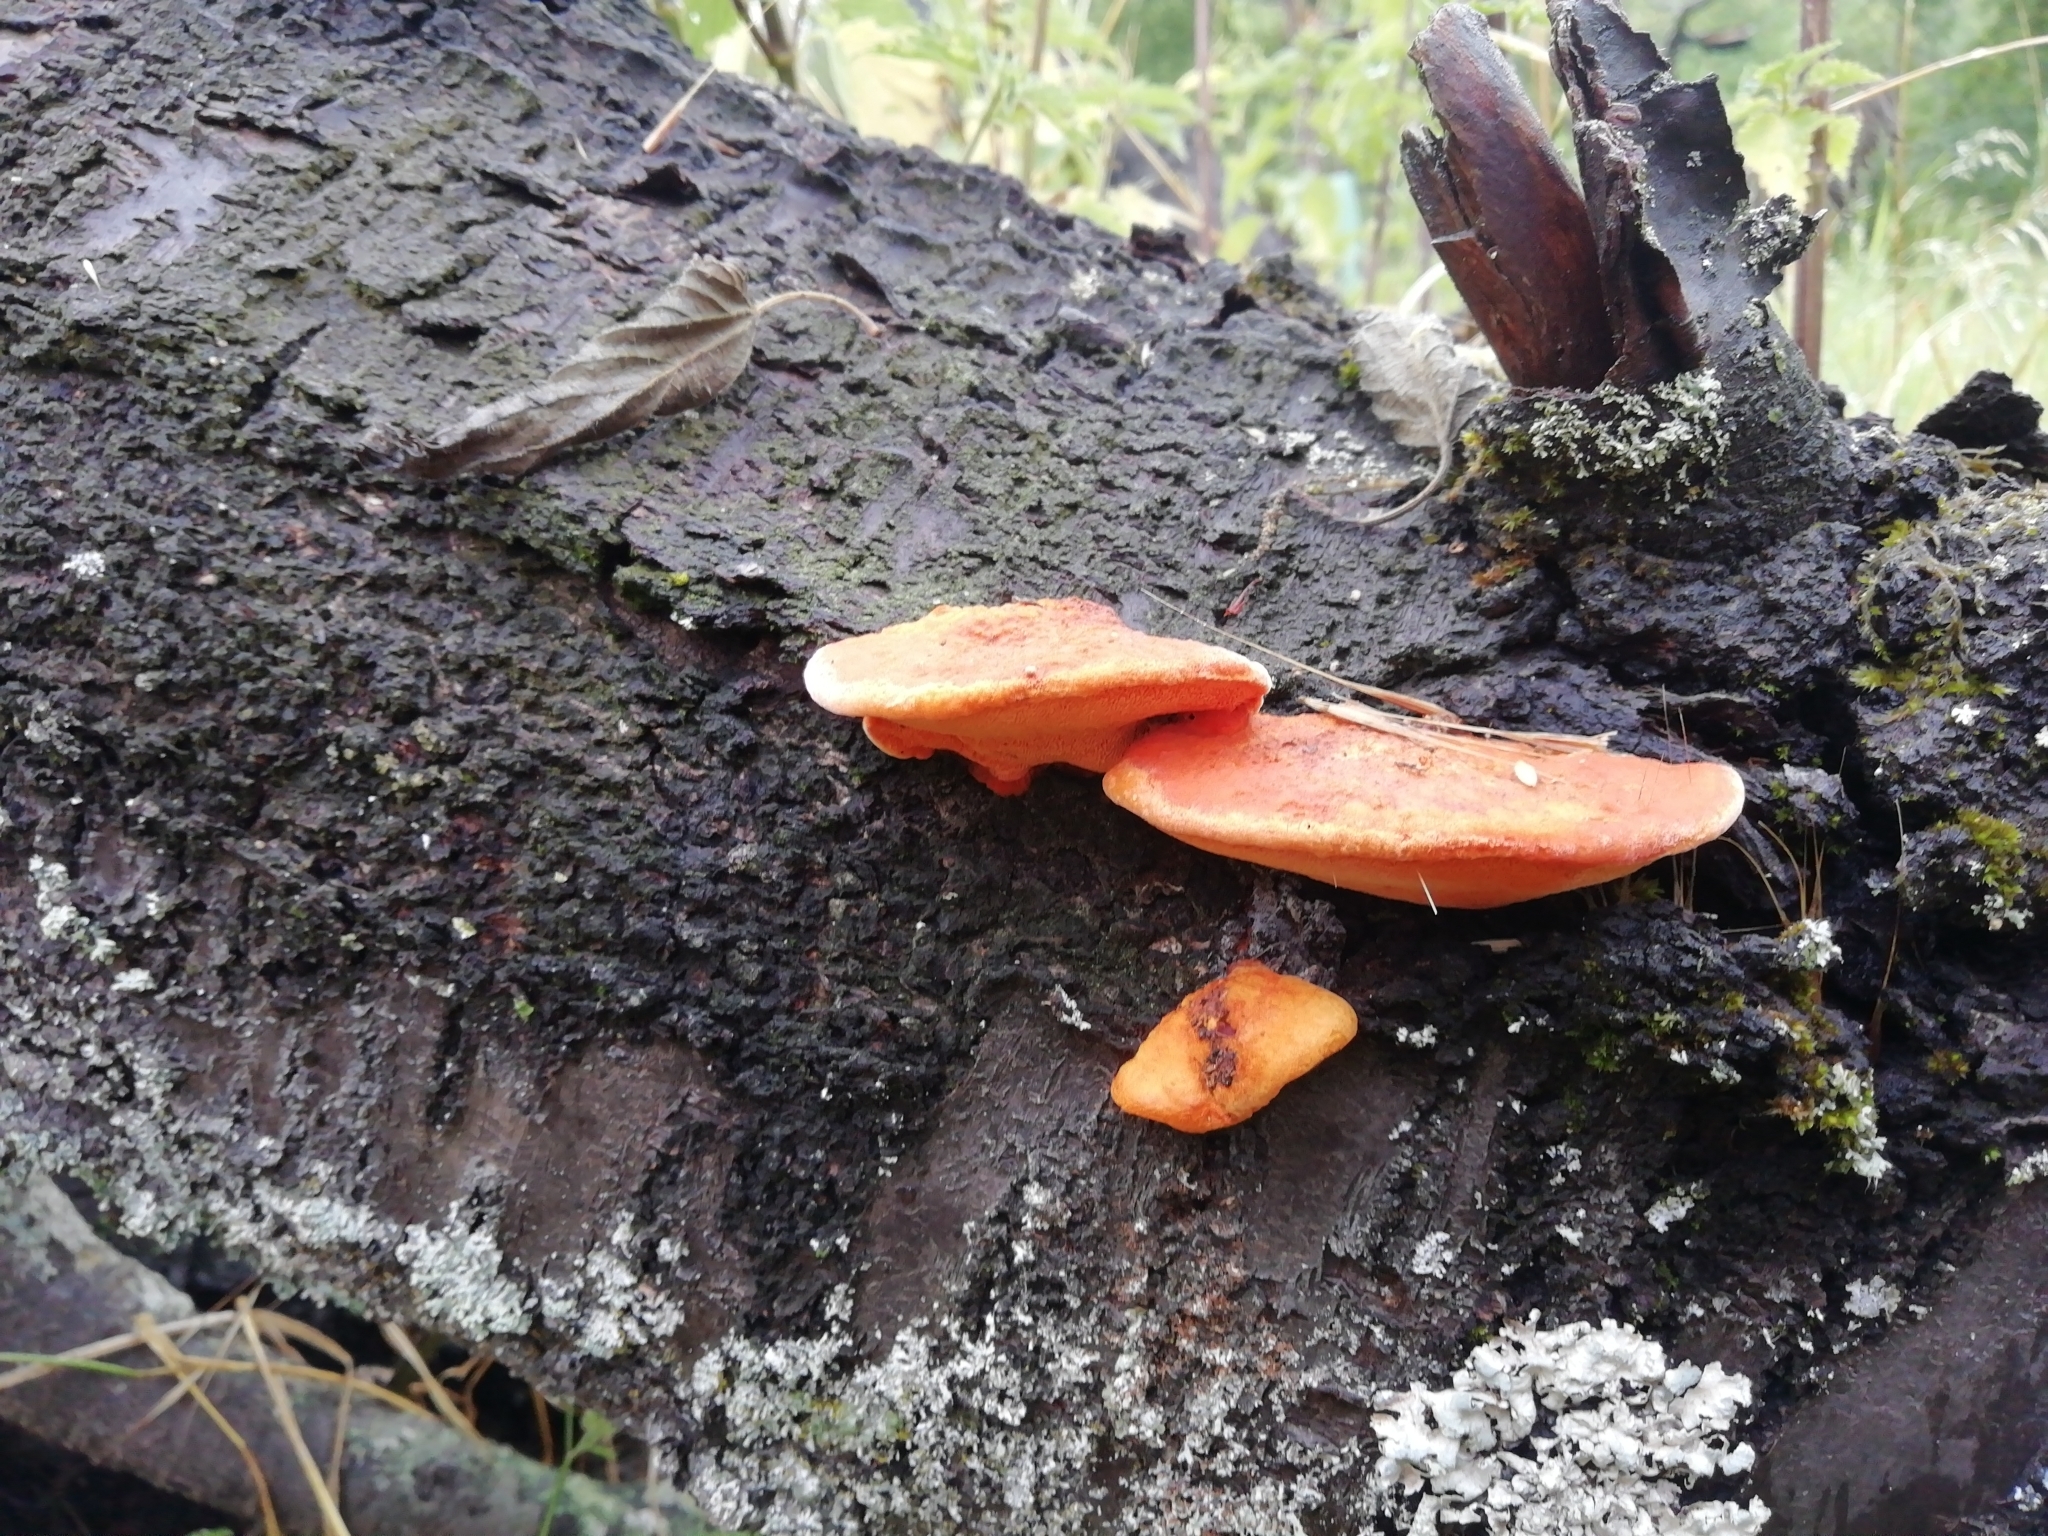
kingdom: Fungi
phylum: Basidiomycota
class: Agaricomycetes
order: Polyporales
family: Polyporaceae
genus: Trametes
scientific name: Trametes cinnabarina
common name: Northern cinnabar polypore
